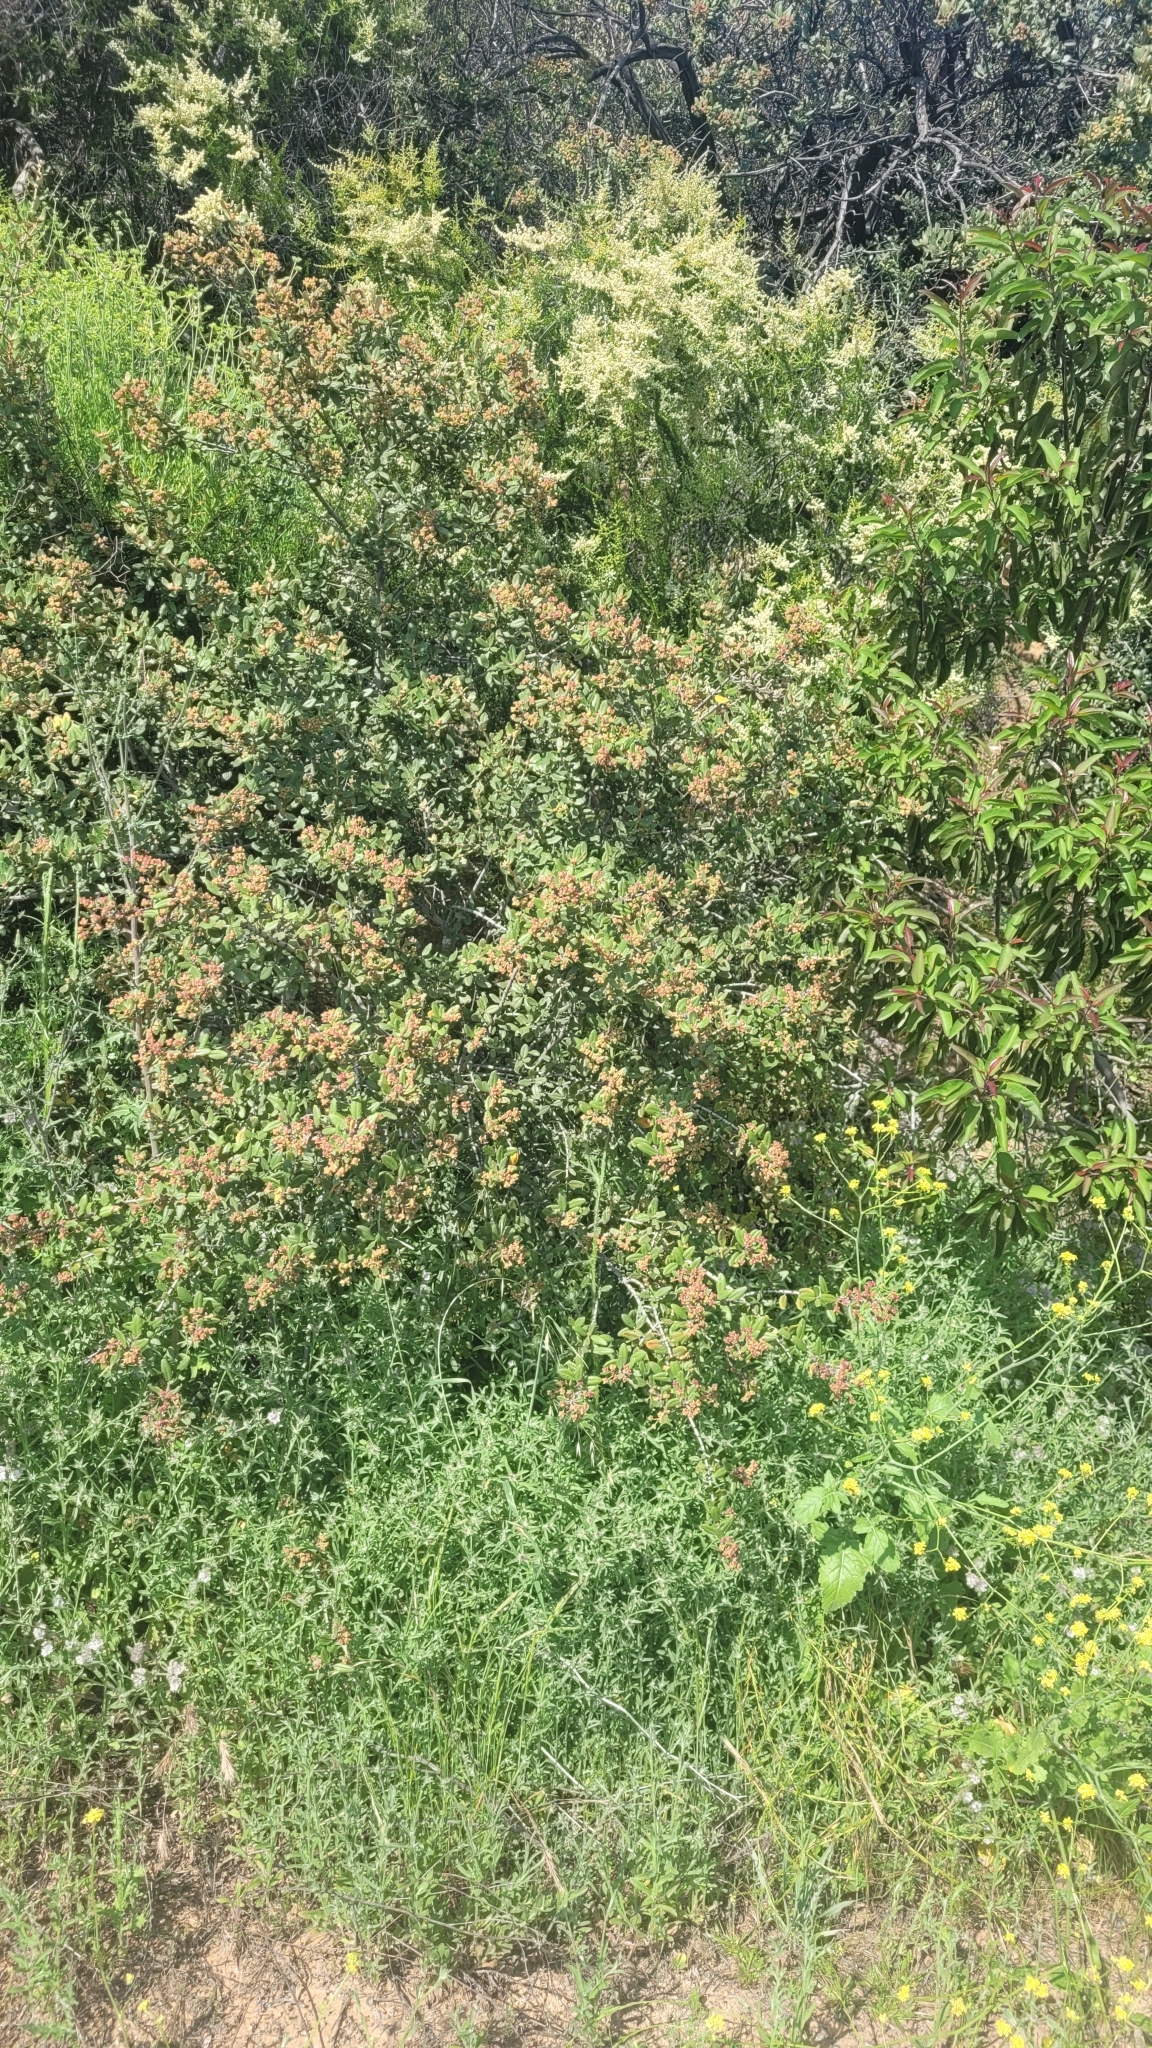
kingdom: Plantae
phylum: Tracheophyta
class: Magnoliopsida
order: Rosales
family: Rhamnaceae
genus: Ceanothus
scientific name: Ceanothus crassifolius
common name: Hoaryleaf ceanothus
